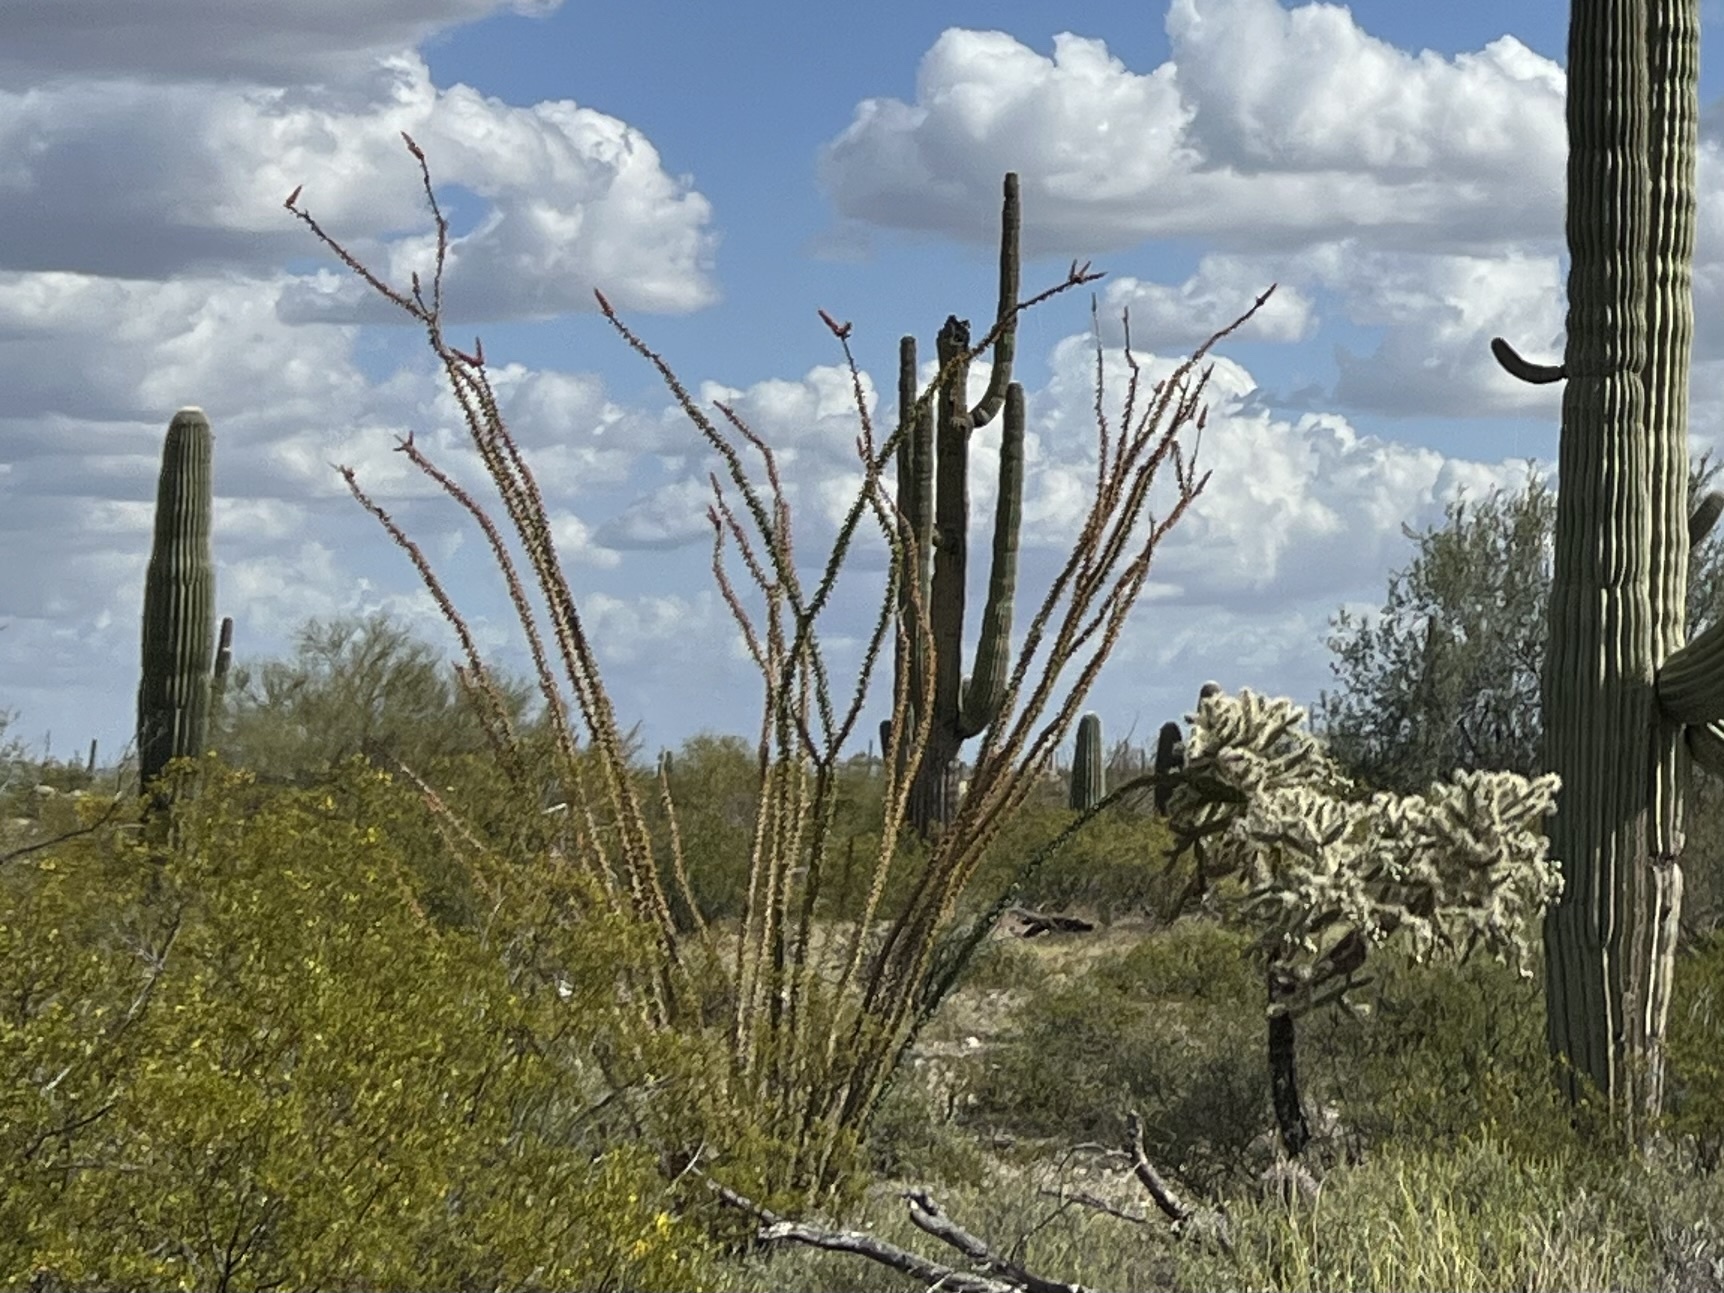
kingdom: Plantae
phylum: Tracheophyta
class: Magnoliopsida
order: Ericales
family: Fouquieriaceae
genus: Fouquieria
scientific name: Fouquieria splendens
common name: Vine-cactus
